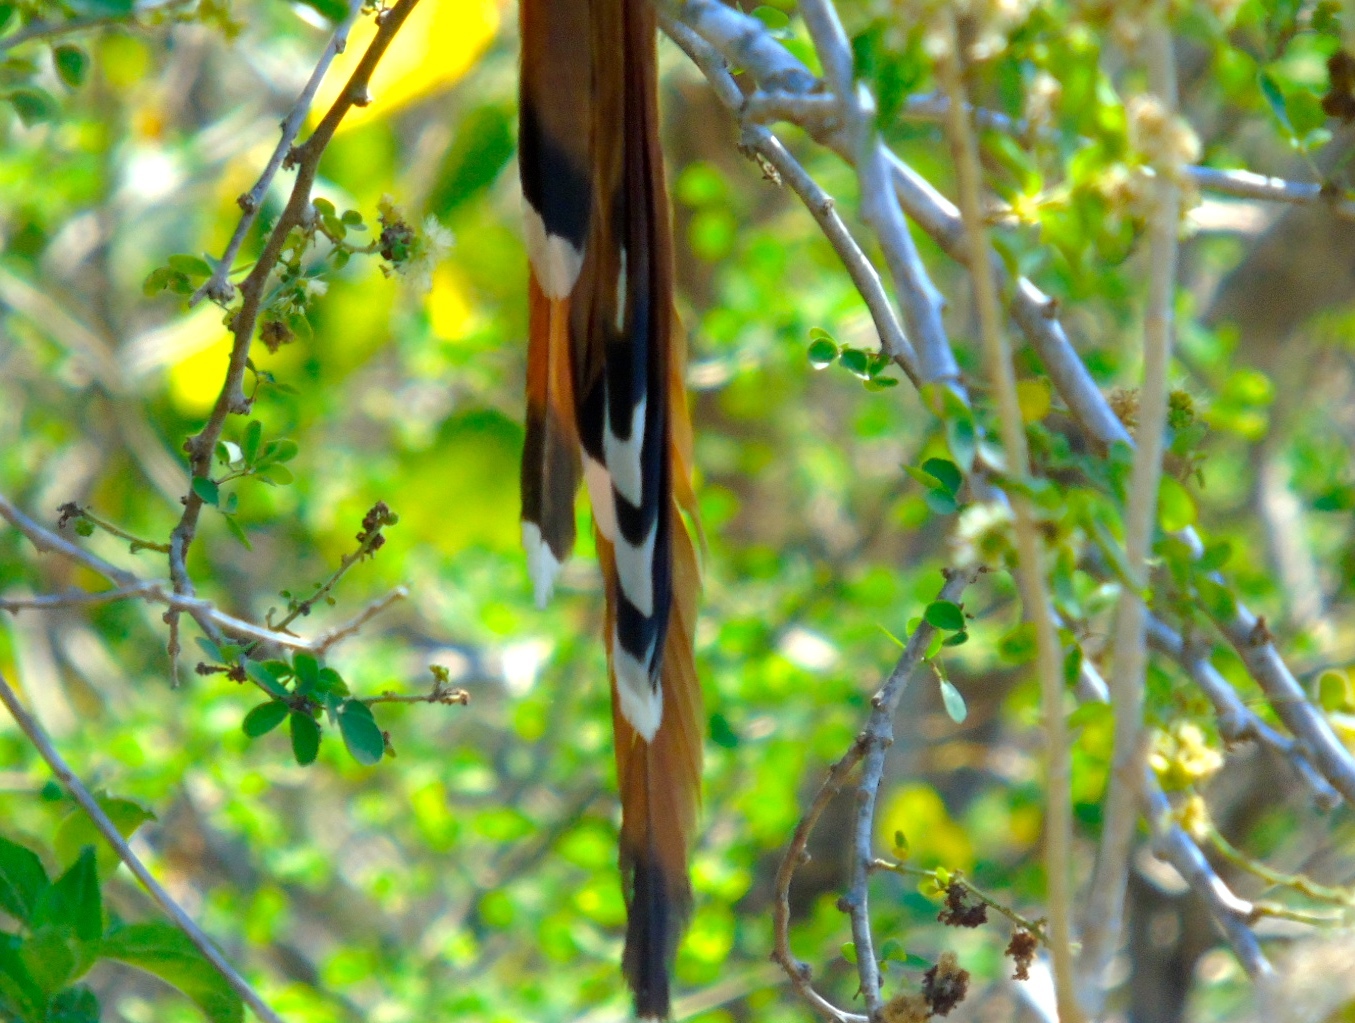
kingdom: Animalia
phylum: Chordata
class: Aves
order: Cuculiformes
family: Cuculidae
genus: Piaya
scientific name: Piaya cayana
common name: Squirrel cuckoo
